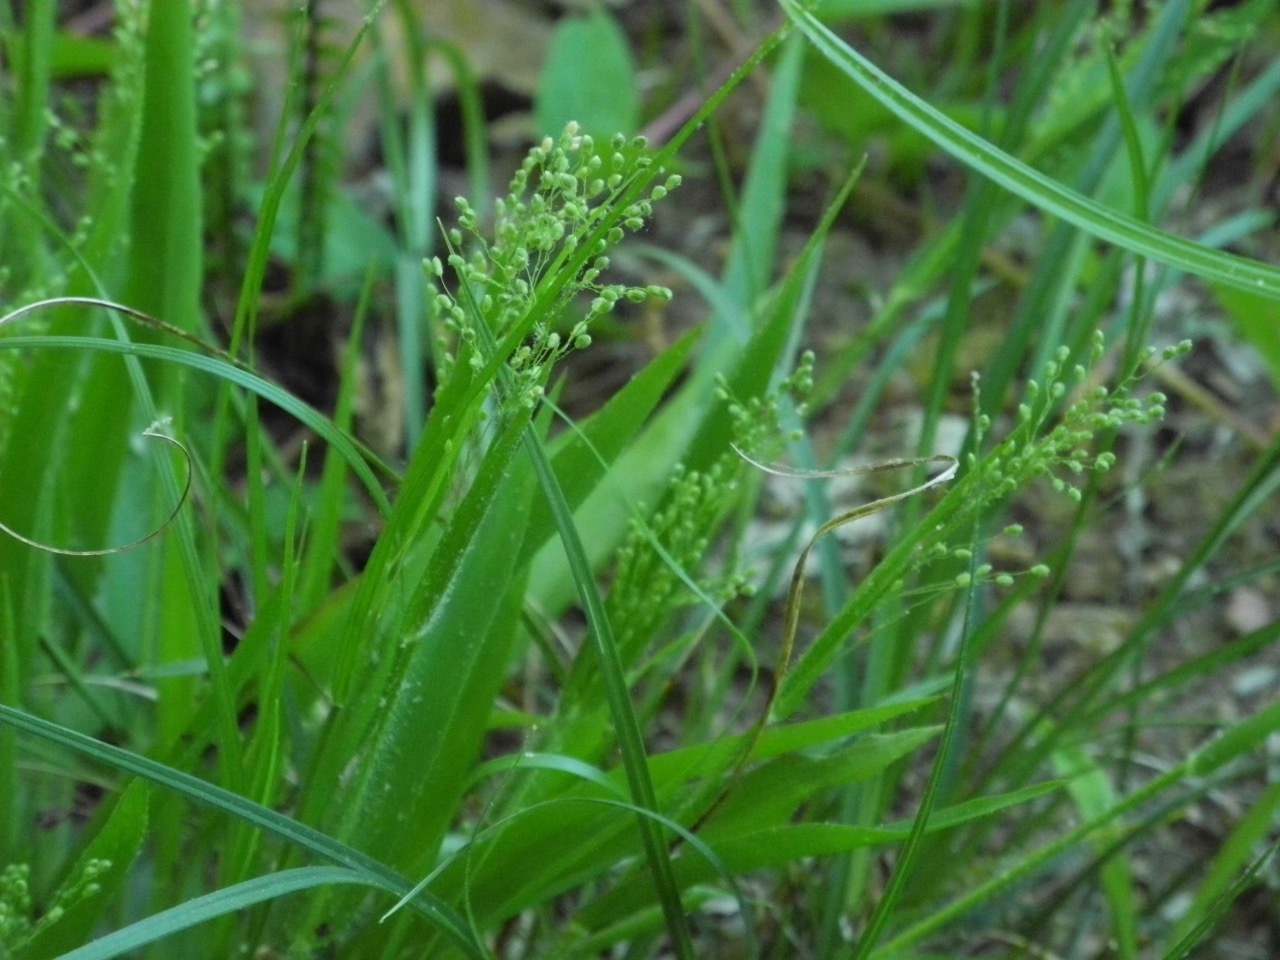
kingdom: Plantae
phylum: Tracheophyta
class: Liliopsida
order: Poales
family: Poaceae
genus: Dichanthelium
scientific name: Dichanthelium laxiflorum
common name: Soft-tuft panic grass
